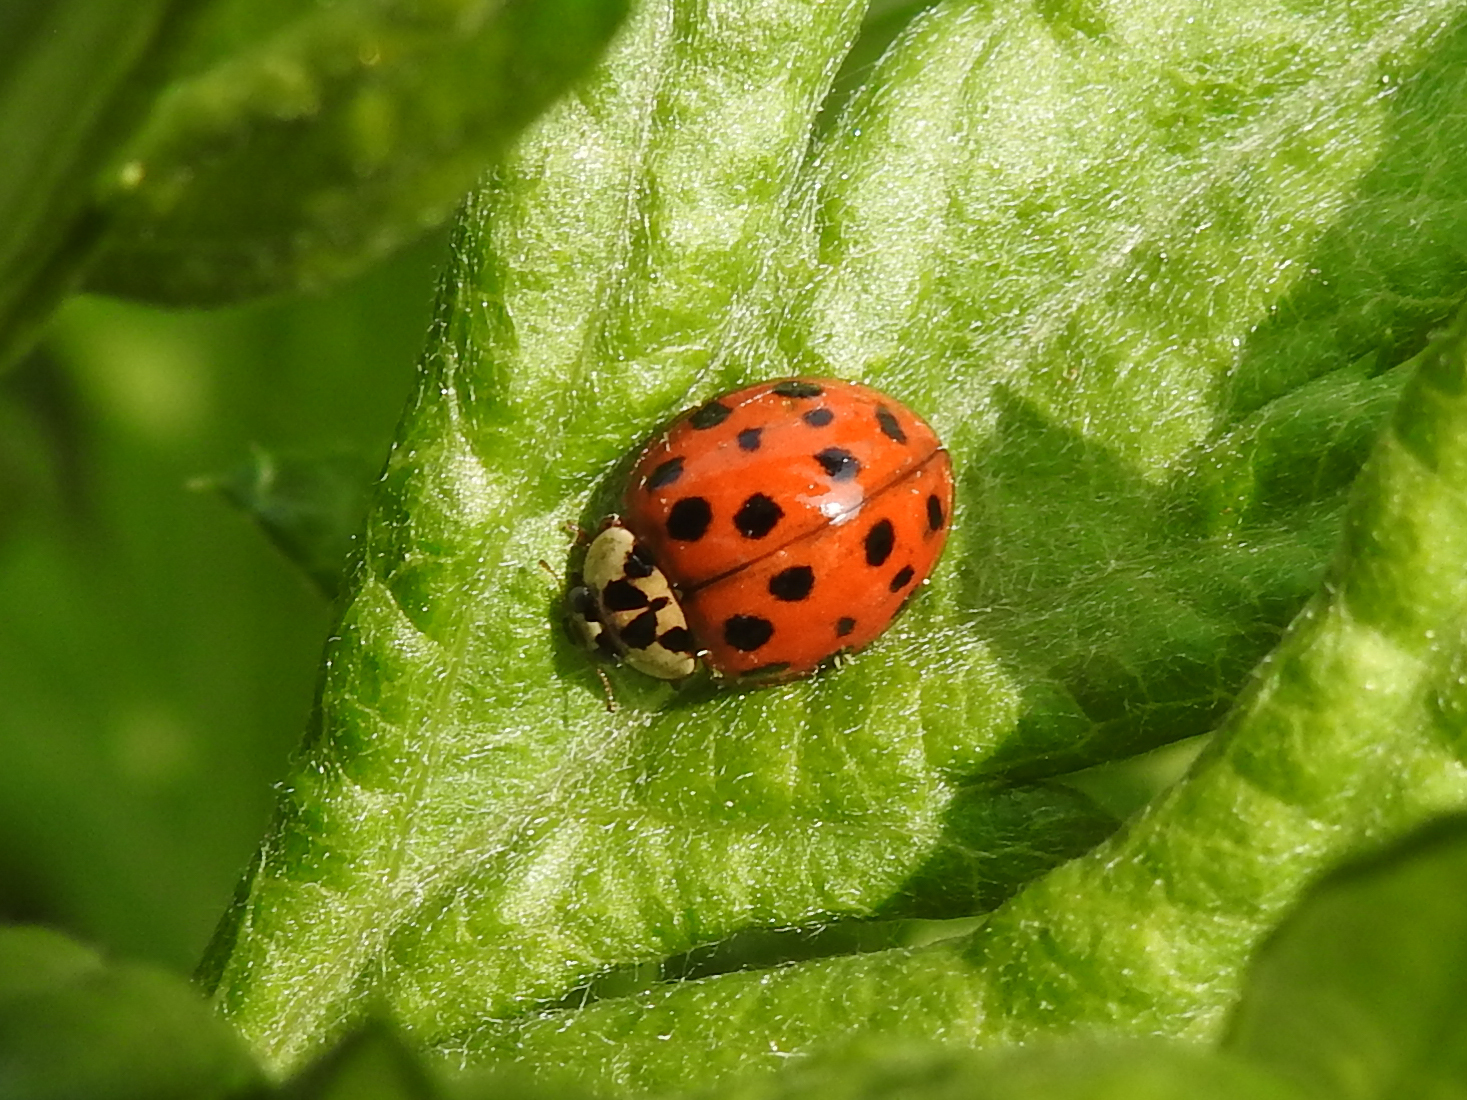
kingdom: Animalia
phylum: Arthropoda
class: Insecta
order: Coleoptera
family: Coccinellidae
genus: Harmonia
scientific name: Harmonia axyridis
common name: Harlequin ladybird
